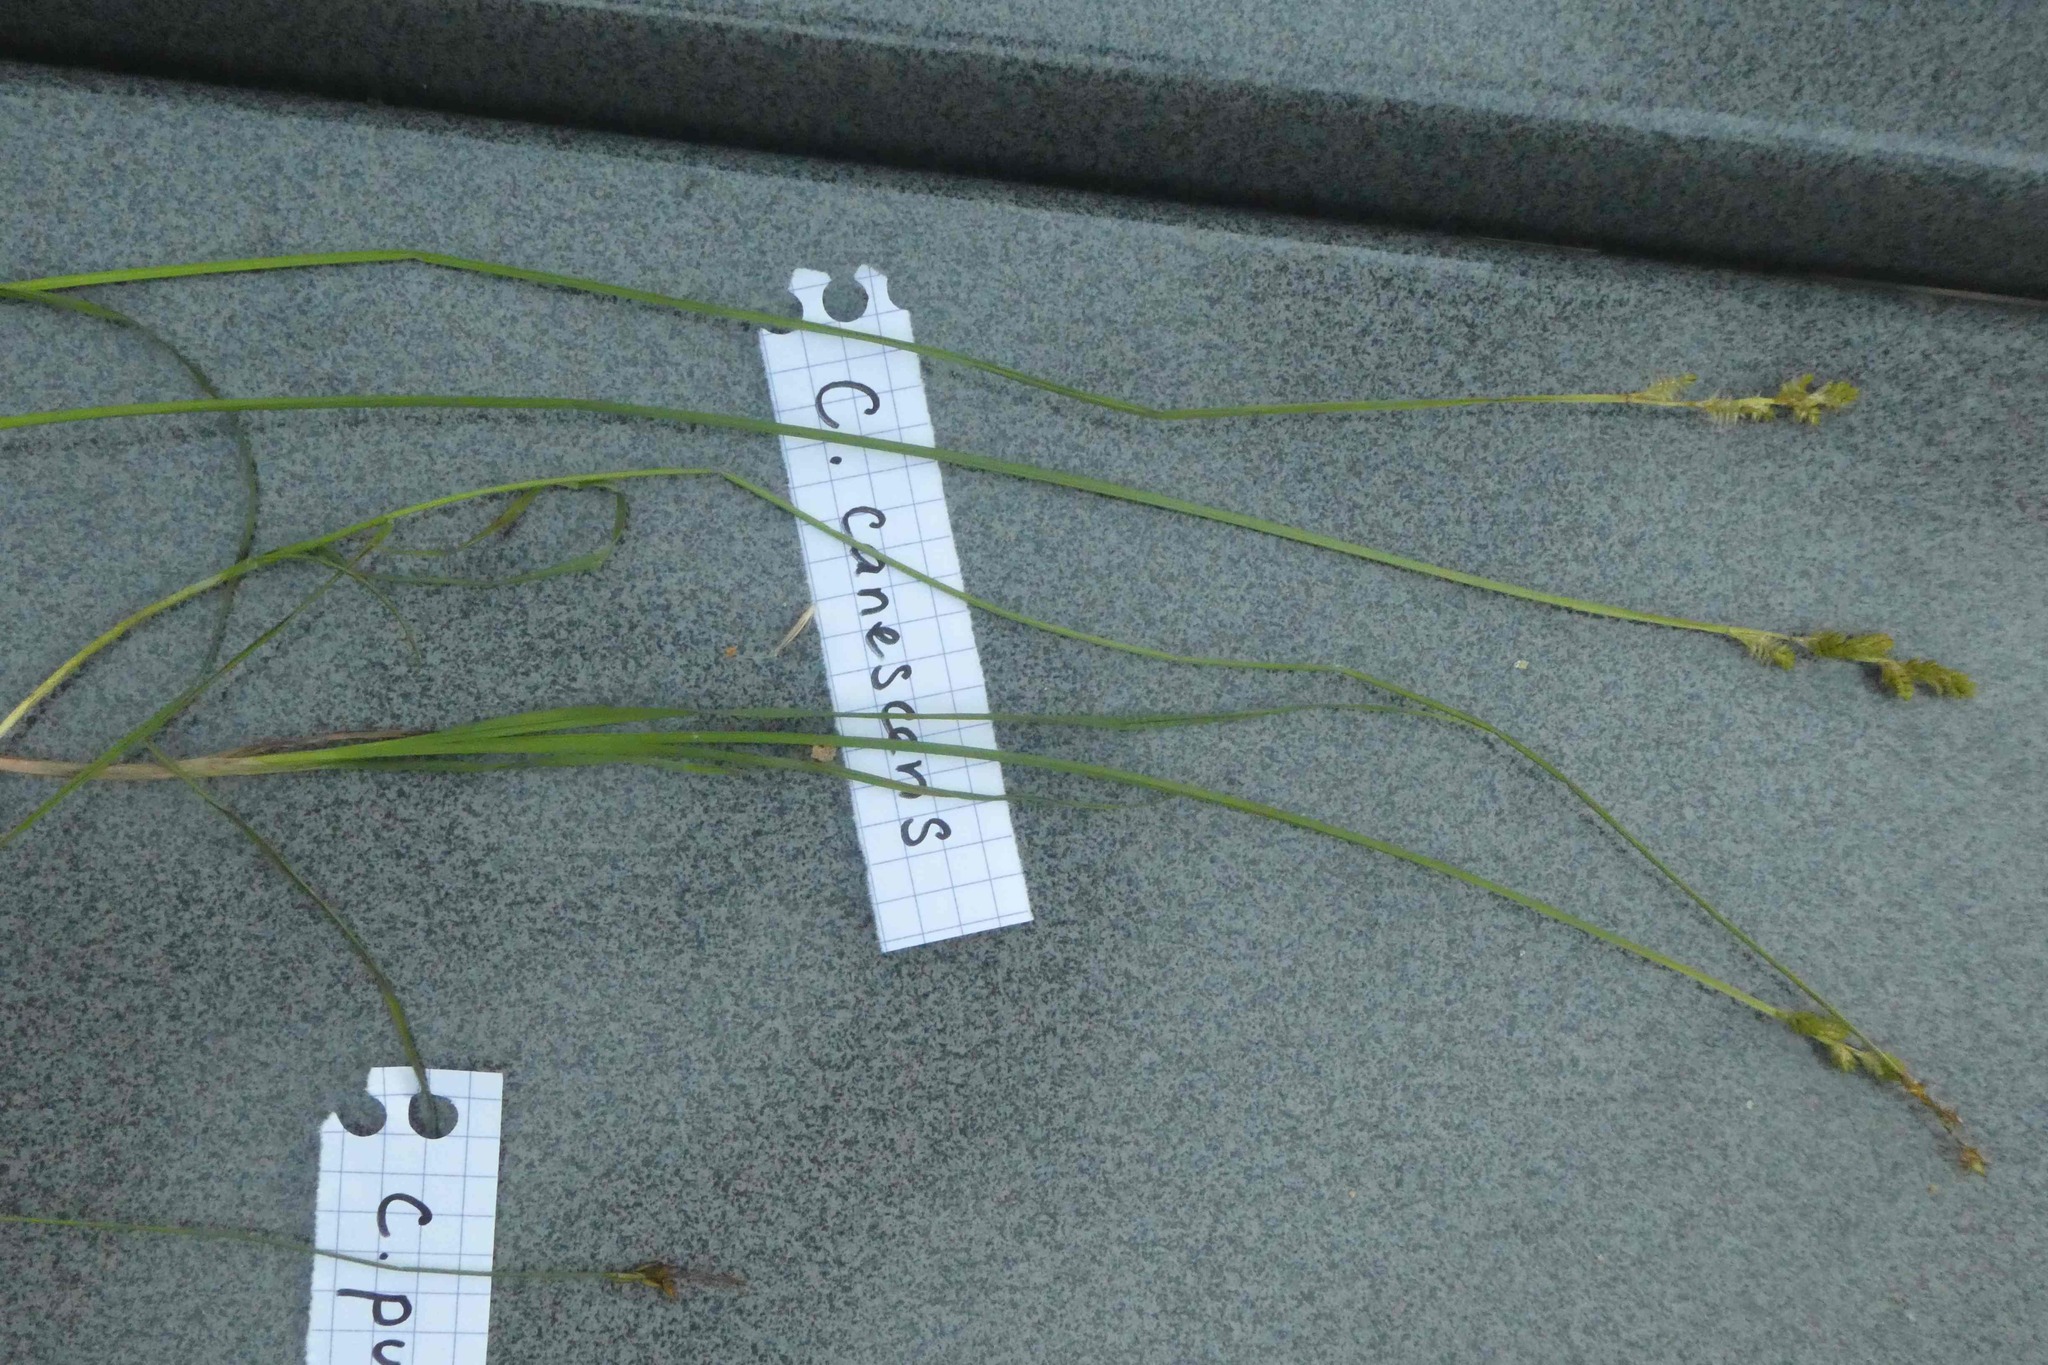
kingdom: Plantae
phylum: Tracheophyta
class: Liliopsida
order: Poales
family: Cyperaceae
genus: Carex
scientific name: Carex canescens
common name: White sedge
